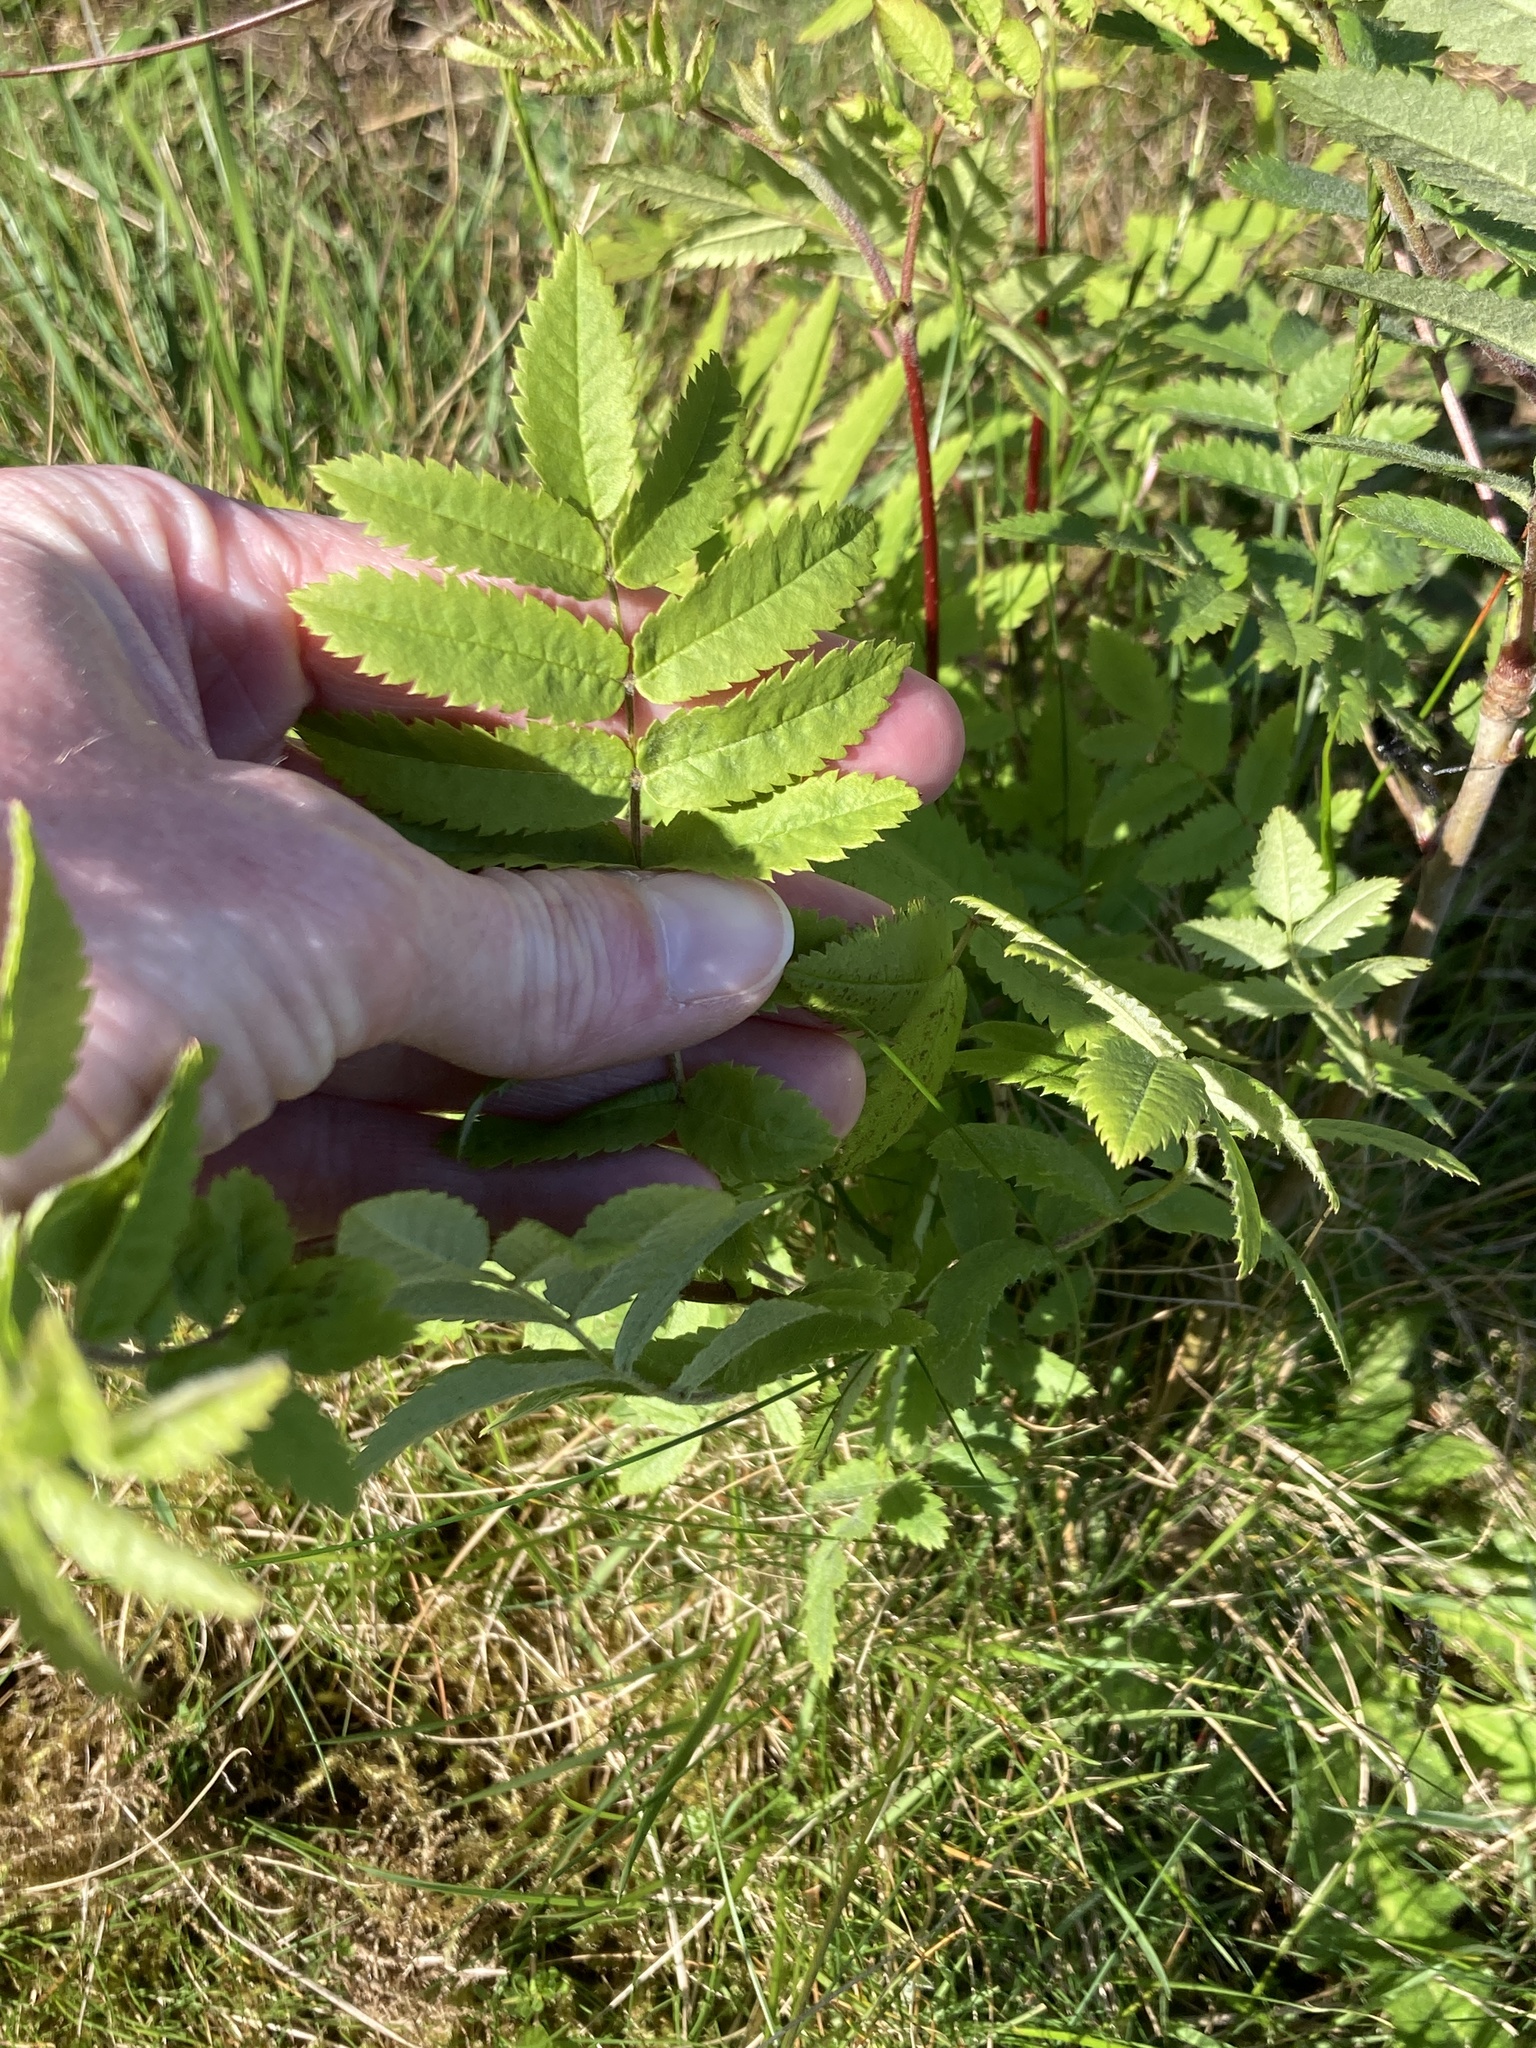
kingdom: Plantae
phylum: Tracheophyta
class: Magnoliopsida
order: Rosales
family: Rosaceae
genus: Sorbus
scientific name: Sorbus aucuparia
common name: Rowan
